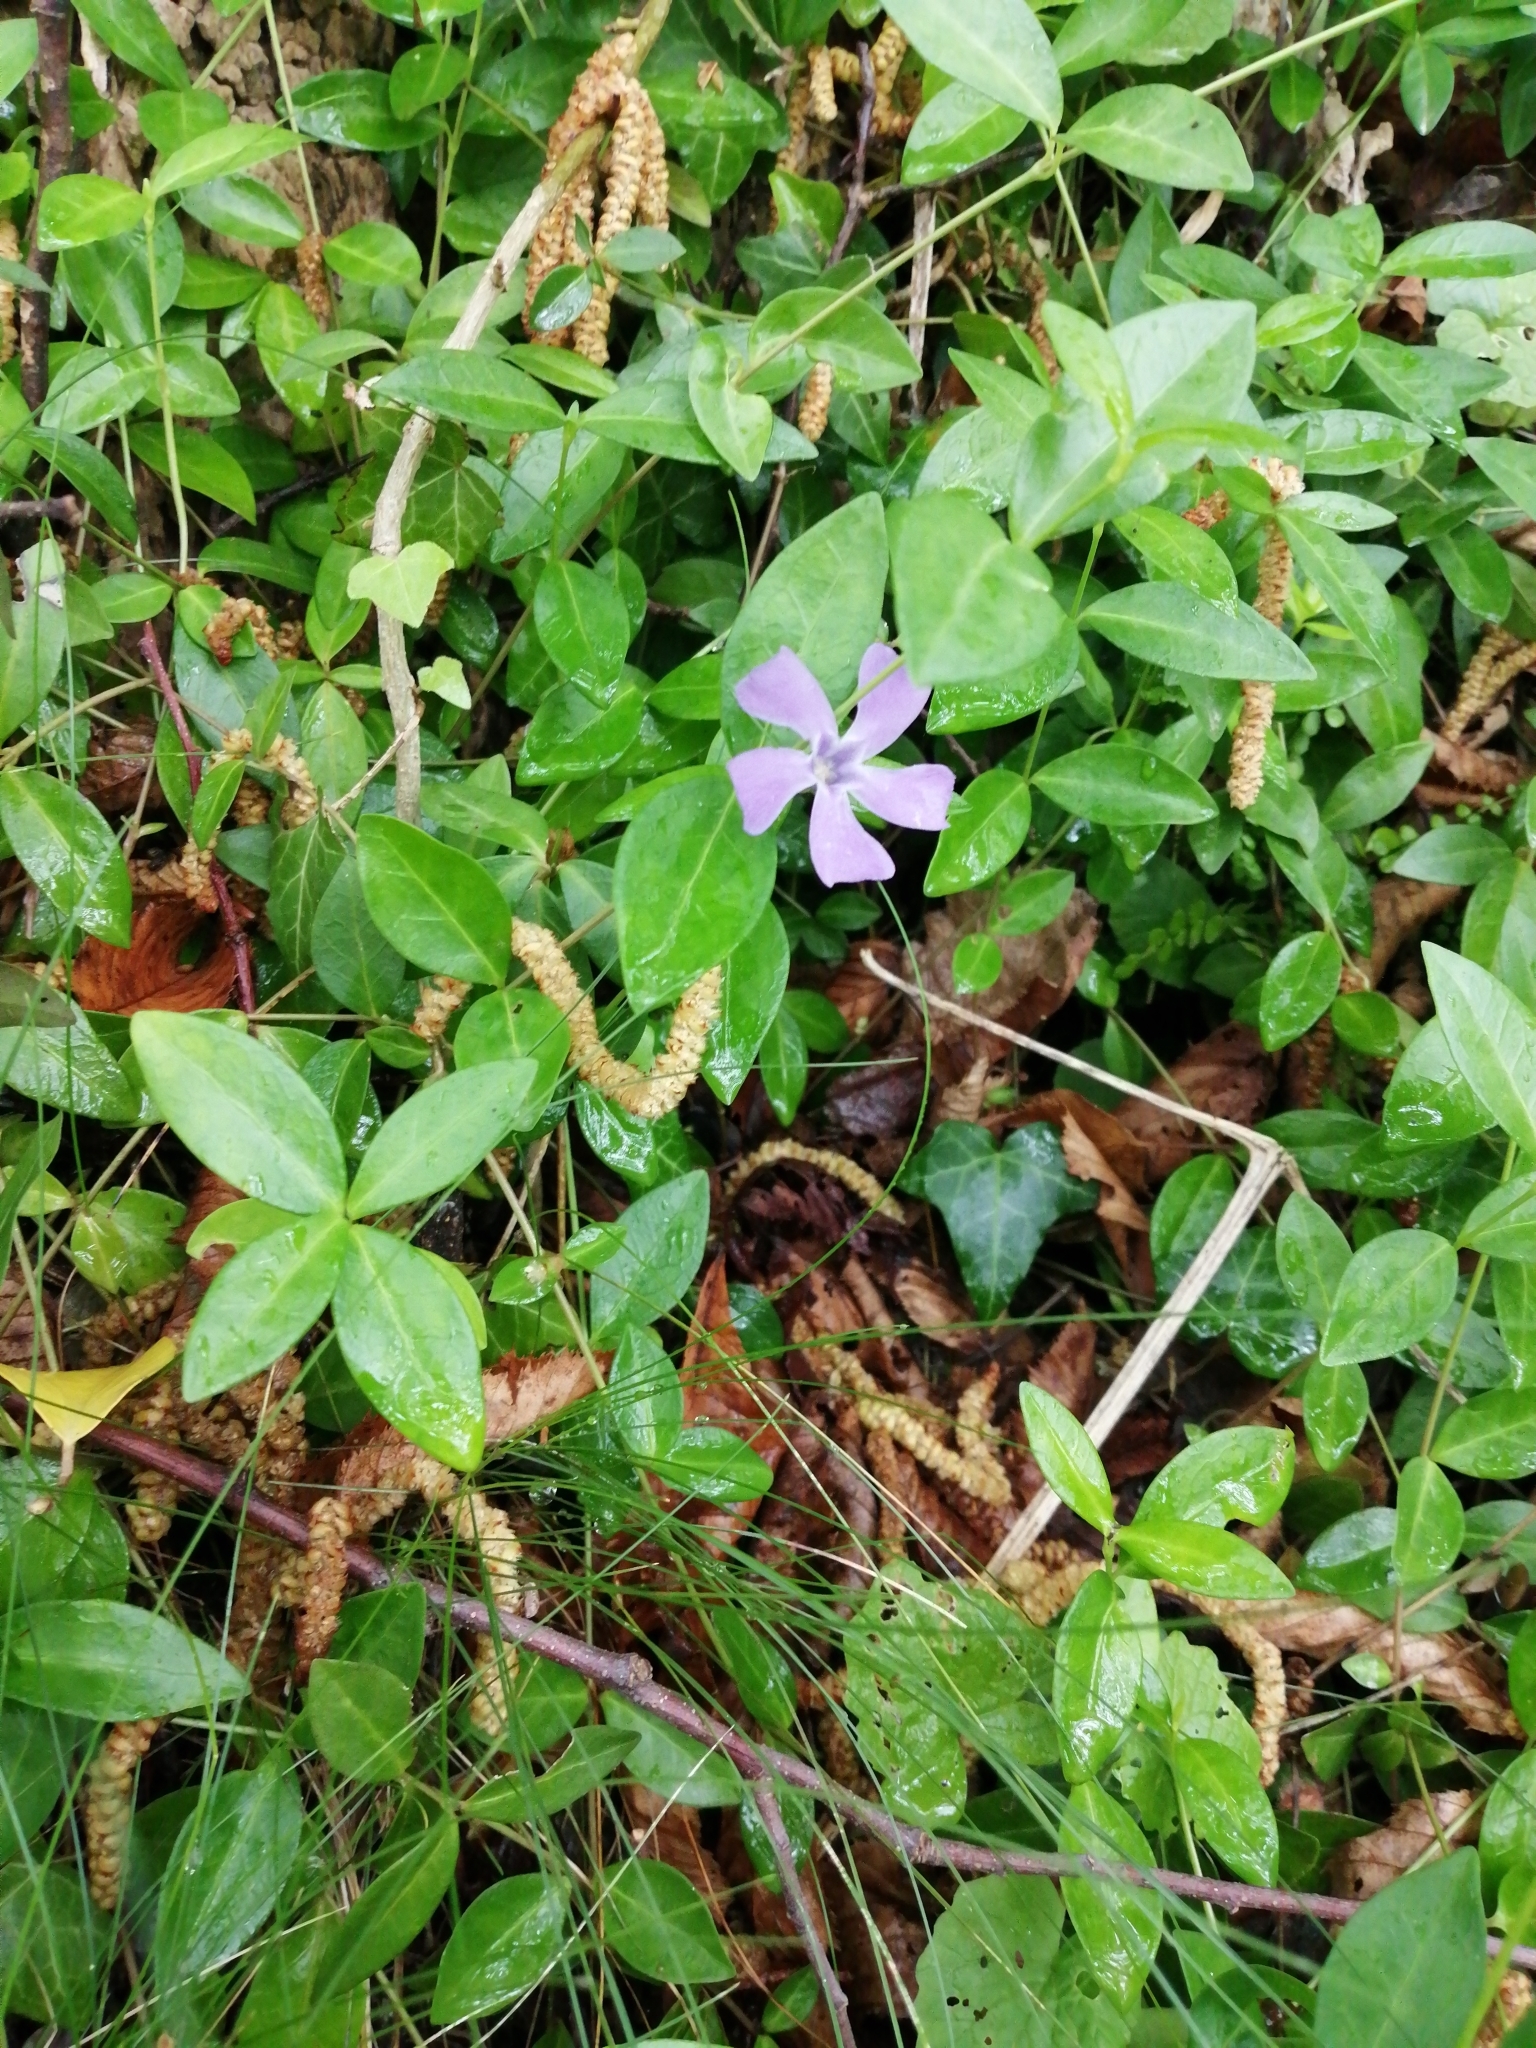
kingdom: Plantae
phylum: Tracheophyta
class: Magnoliopsida
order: Gentianales
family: Apocynaceae
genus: Vinca
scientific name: Vinca minor
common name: Lesser periwinkle
